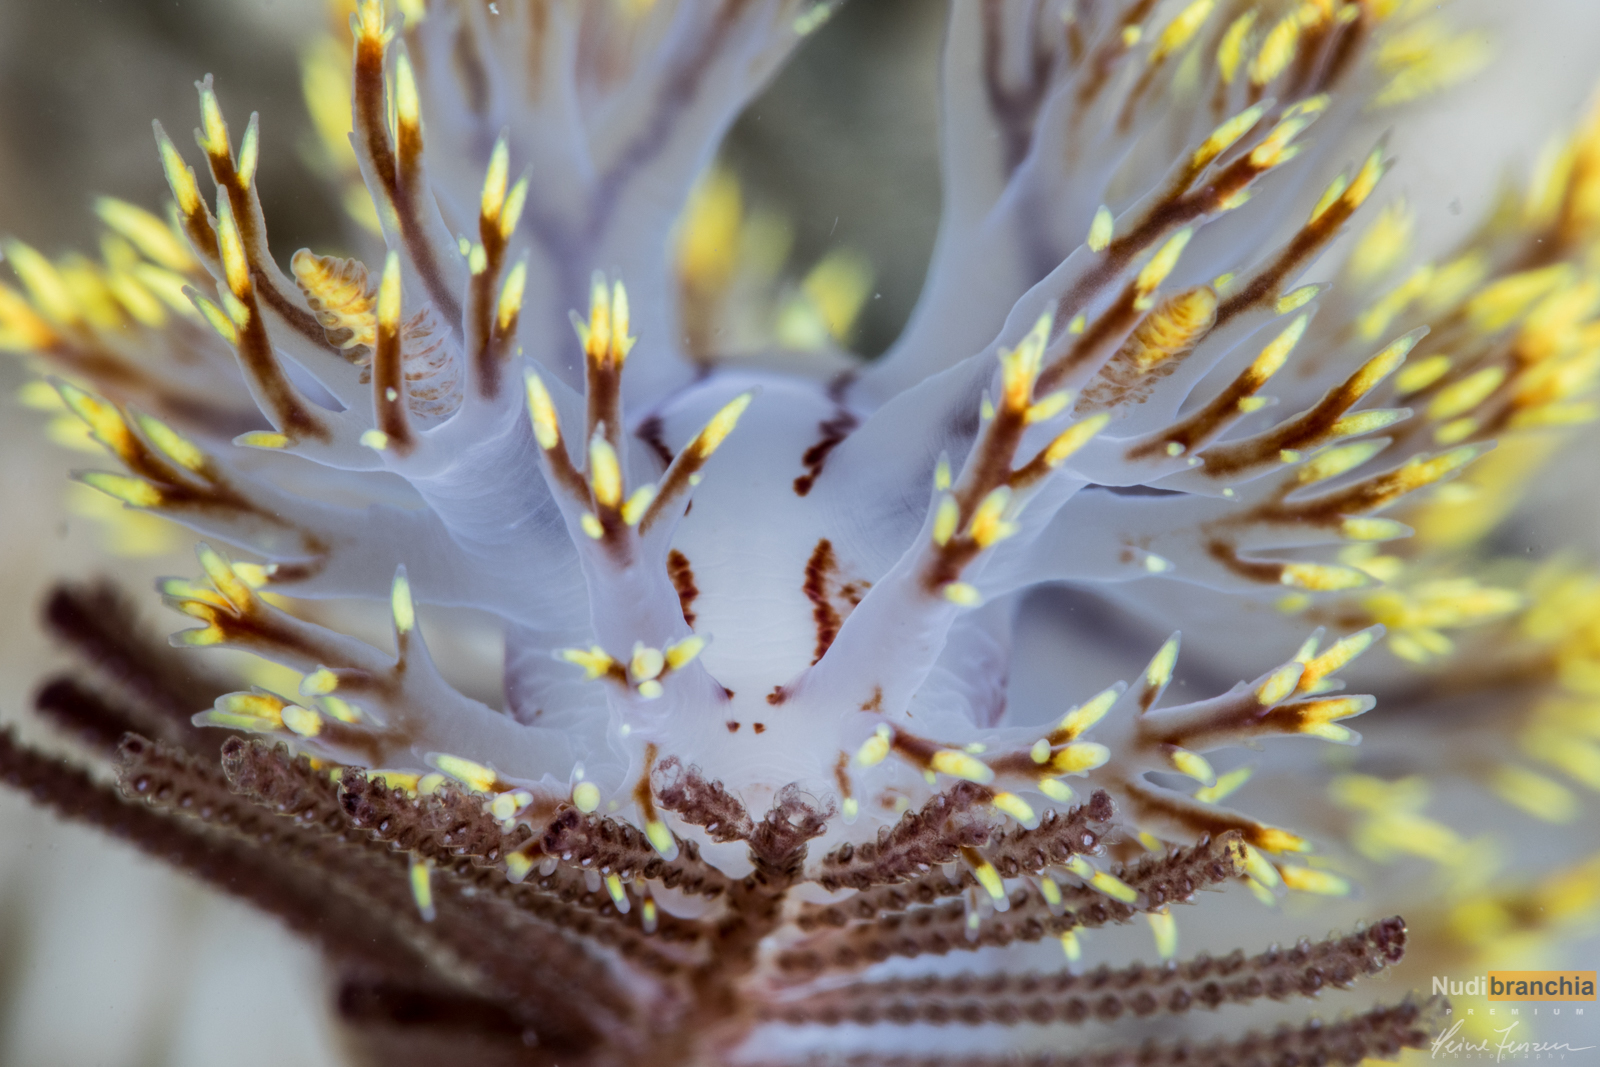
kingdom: Animalia
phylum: Mollusca
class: Gastropoda
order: Nudibranchia
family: Dendronotidae
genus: Dendronotus
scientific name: Dendronotus yrjargul
